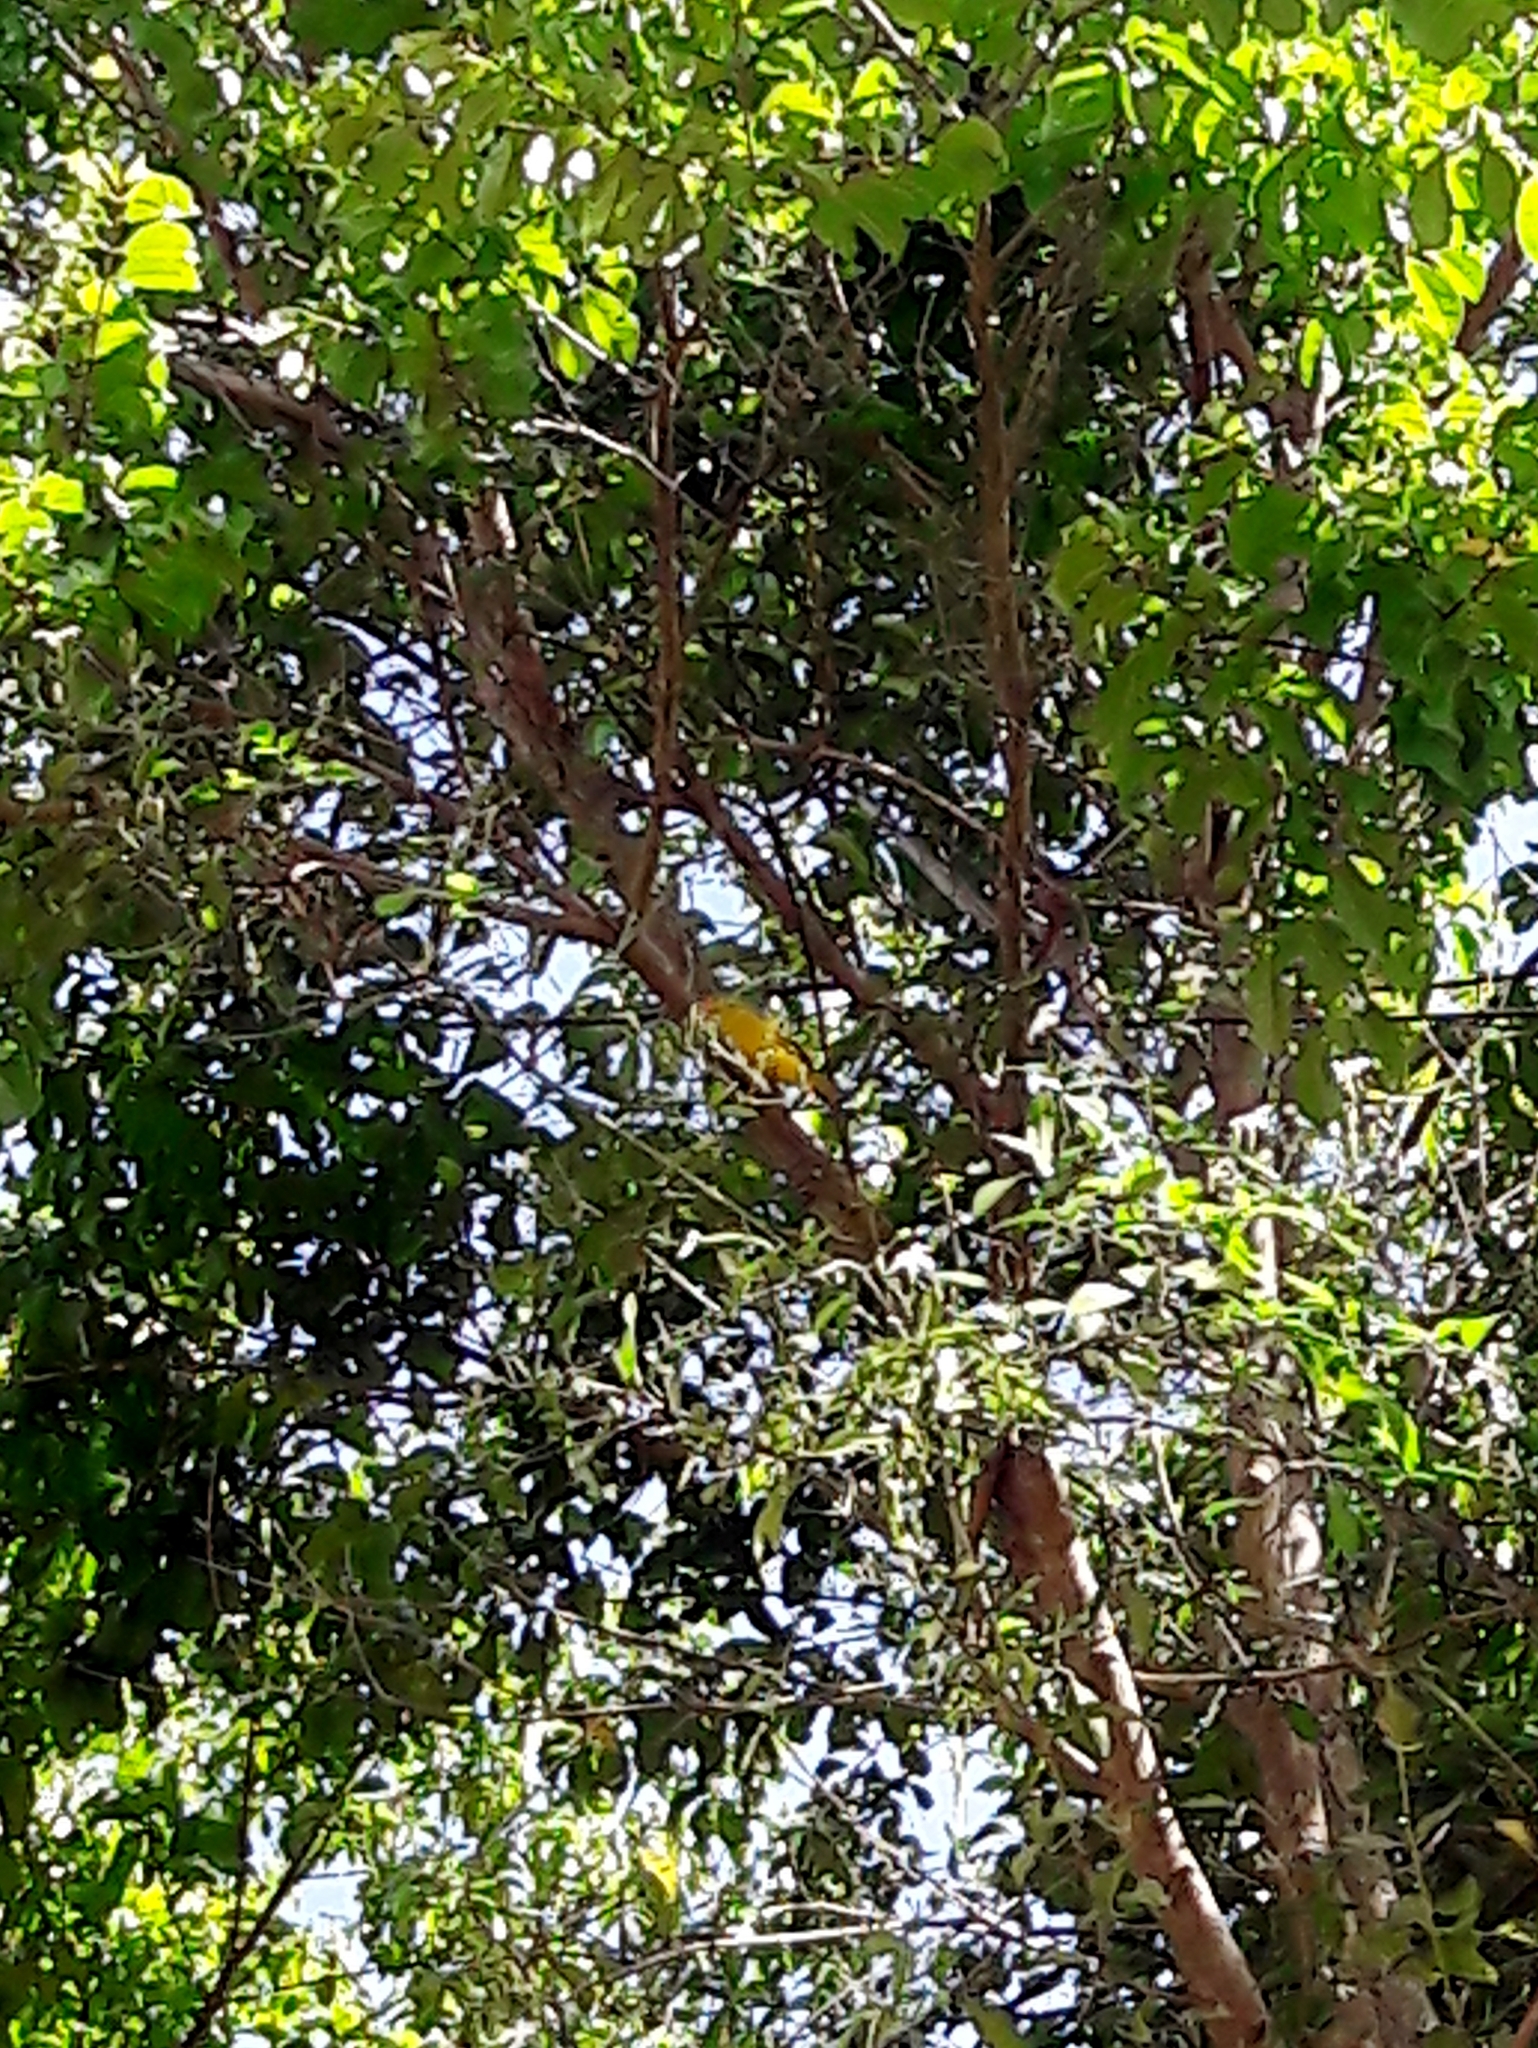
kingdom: Animalia
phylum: Chordata
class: Aves
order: Passeriformes
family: Thraupidae
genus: Sicalis
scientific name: Sicalis flaveola
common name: Saffron finch
